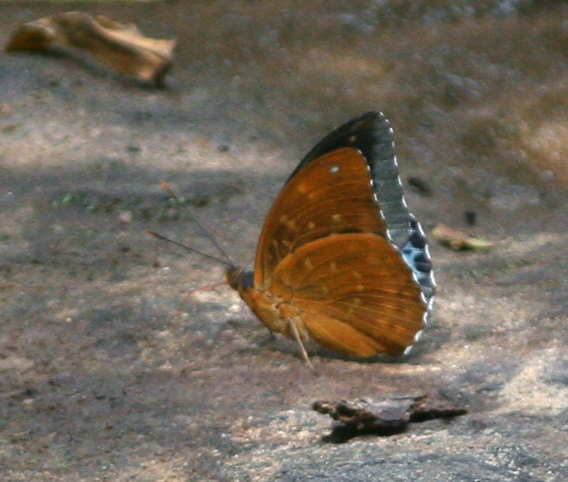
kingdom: Animalia
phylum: Arthropoda
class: Insecta
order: Lepidoptera
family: Nymphalidae
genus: Lexias
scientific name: Lexias pardalis
